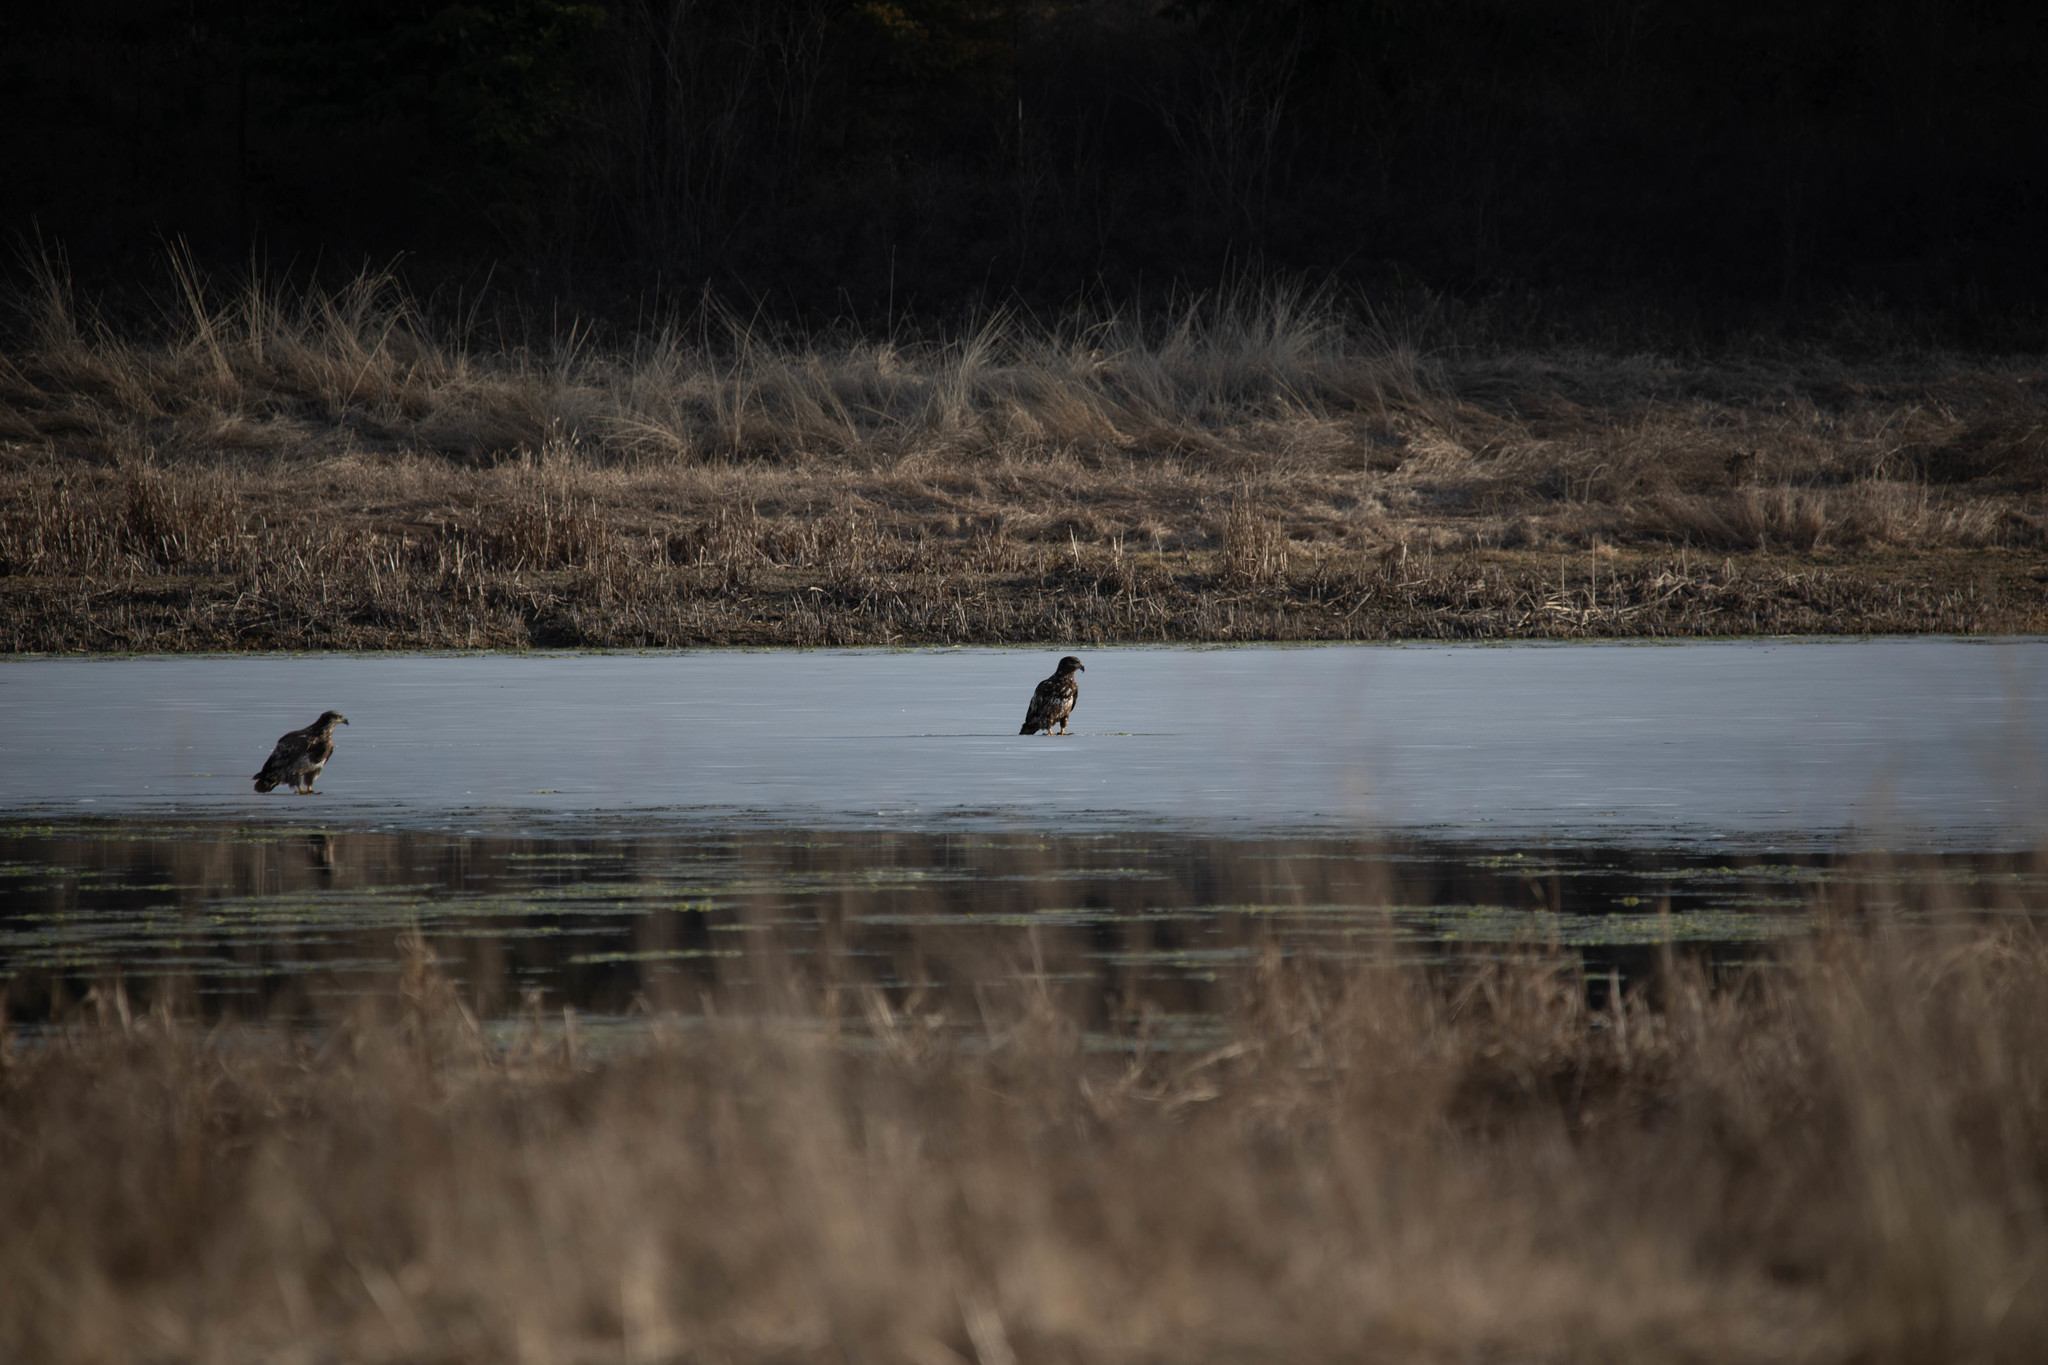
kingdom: Animalia
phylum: Chordata
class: Aves
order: Accipitriformes
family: Accipitridae
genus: Haliaeetus
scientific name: Haliaeetus leucocephalus
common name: Bald eagle
